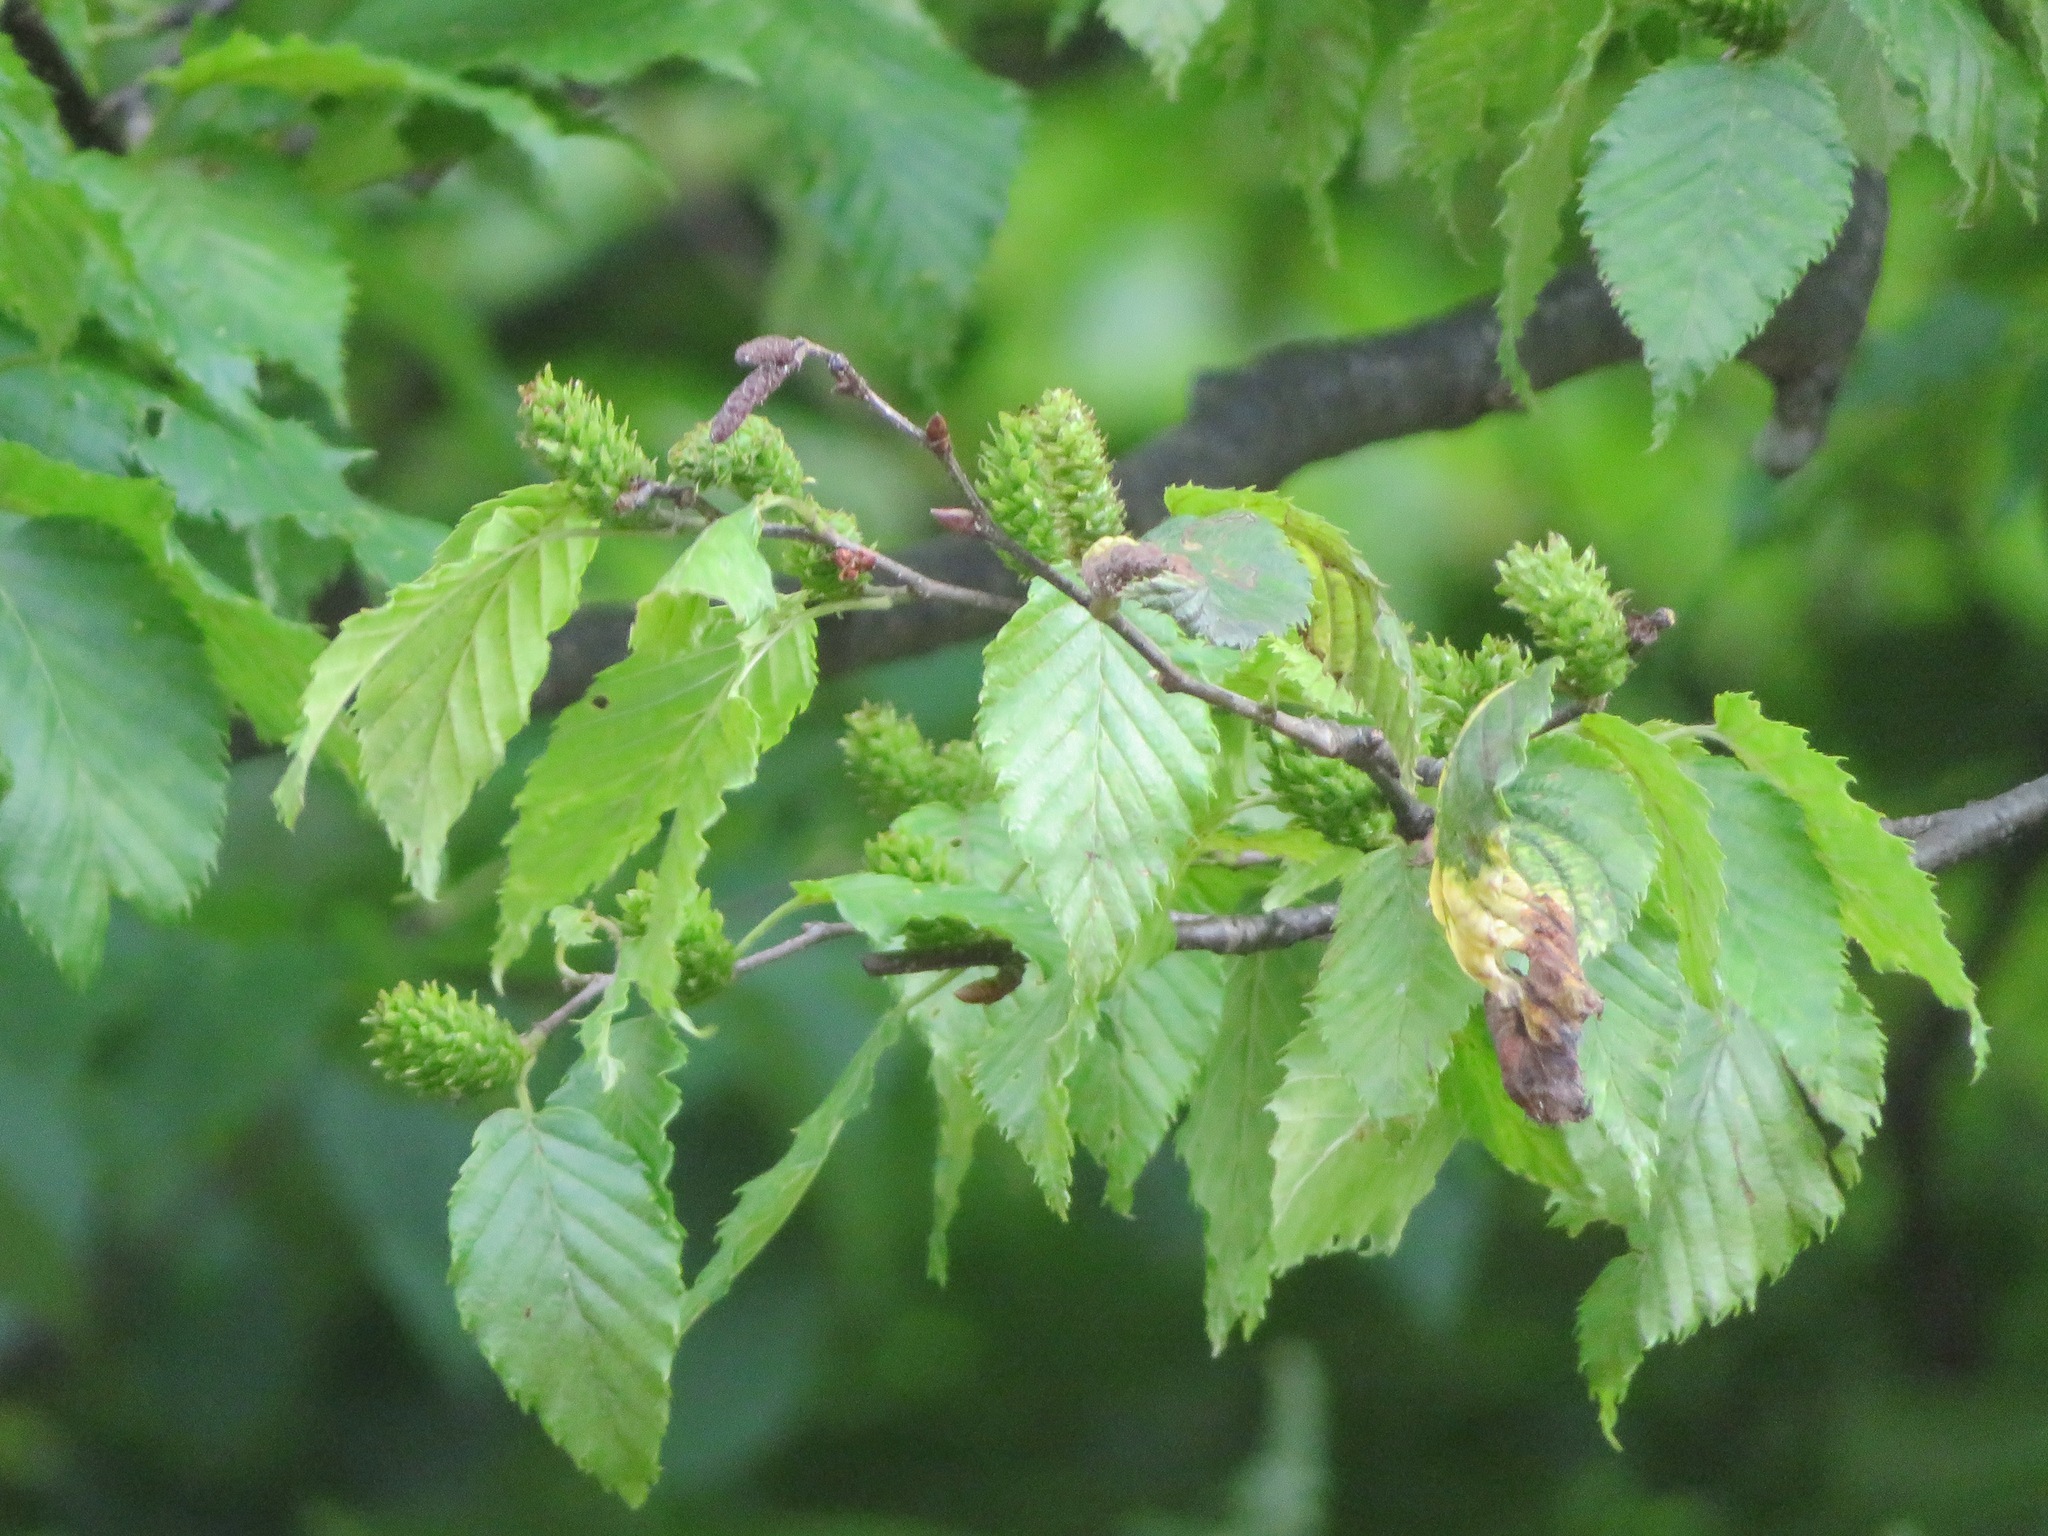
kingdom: Plantae
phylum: Tracheophyta
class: Magnoliopsida
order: Fagales
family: Betulaceae
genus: Betula
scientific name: Betula grossa
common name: Japanese cherry birch
